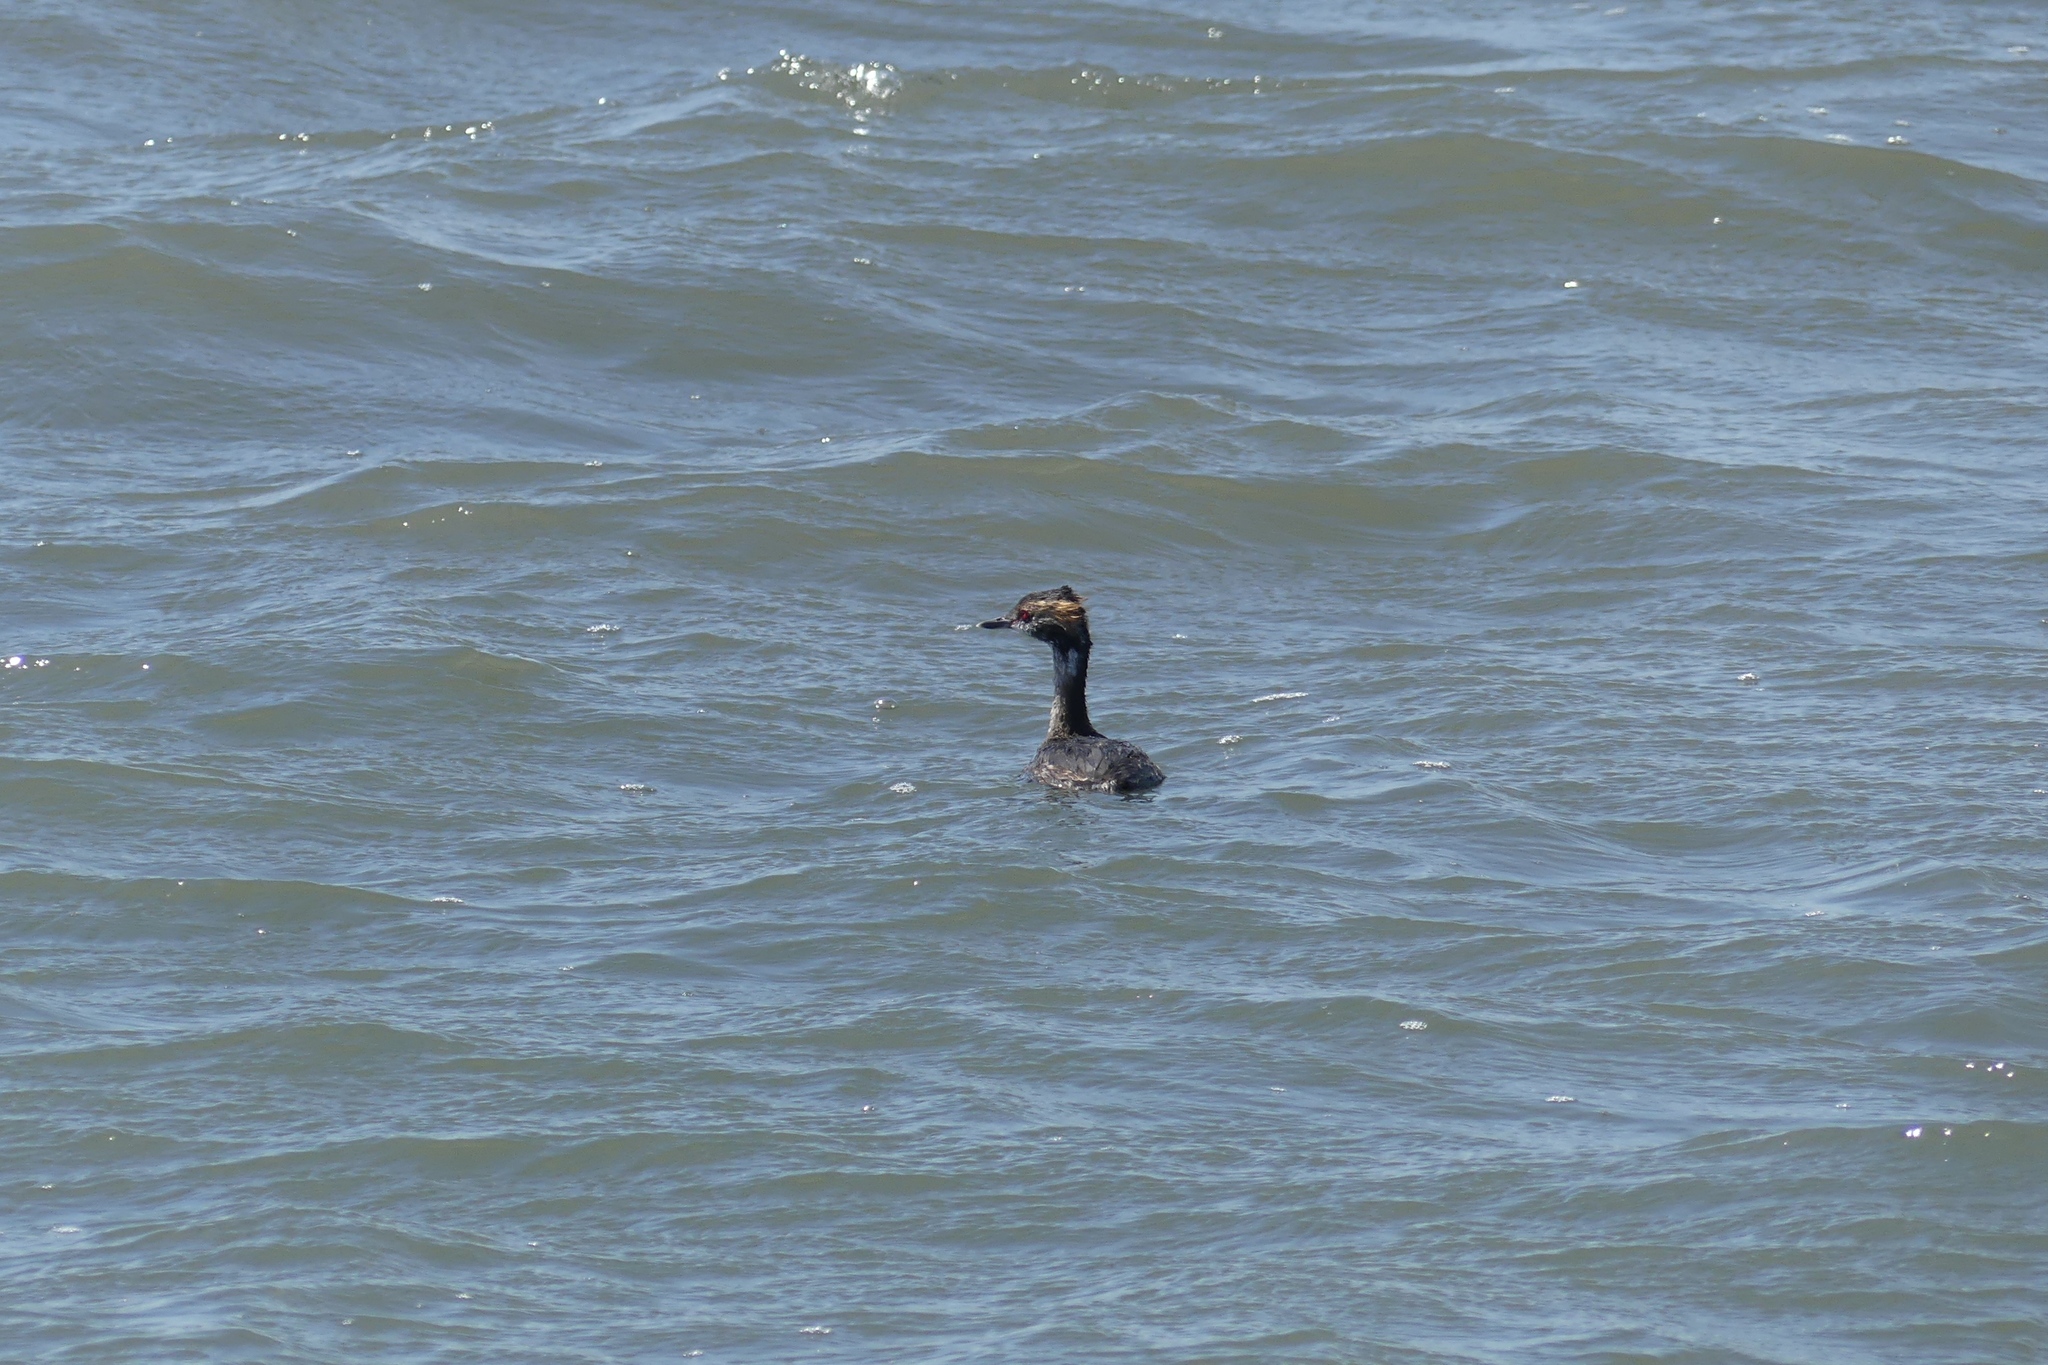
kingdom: Animalia
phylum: Chordata
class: Aves
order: Podicipediformes
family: Podicipedidae
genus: Podiceps
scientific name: Podiceps auritus
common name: Horned grebe
